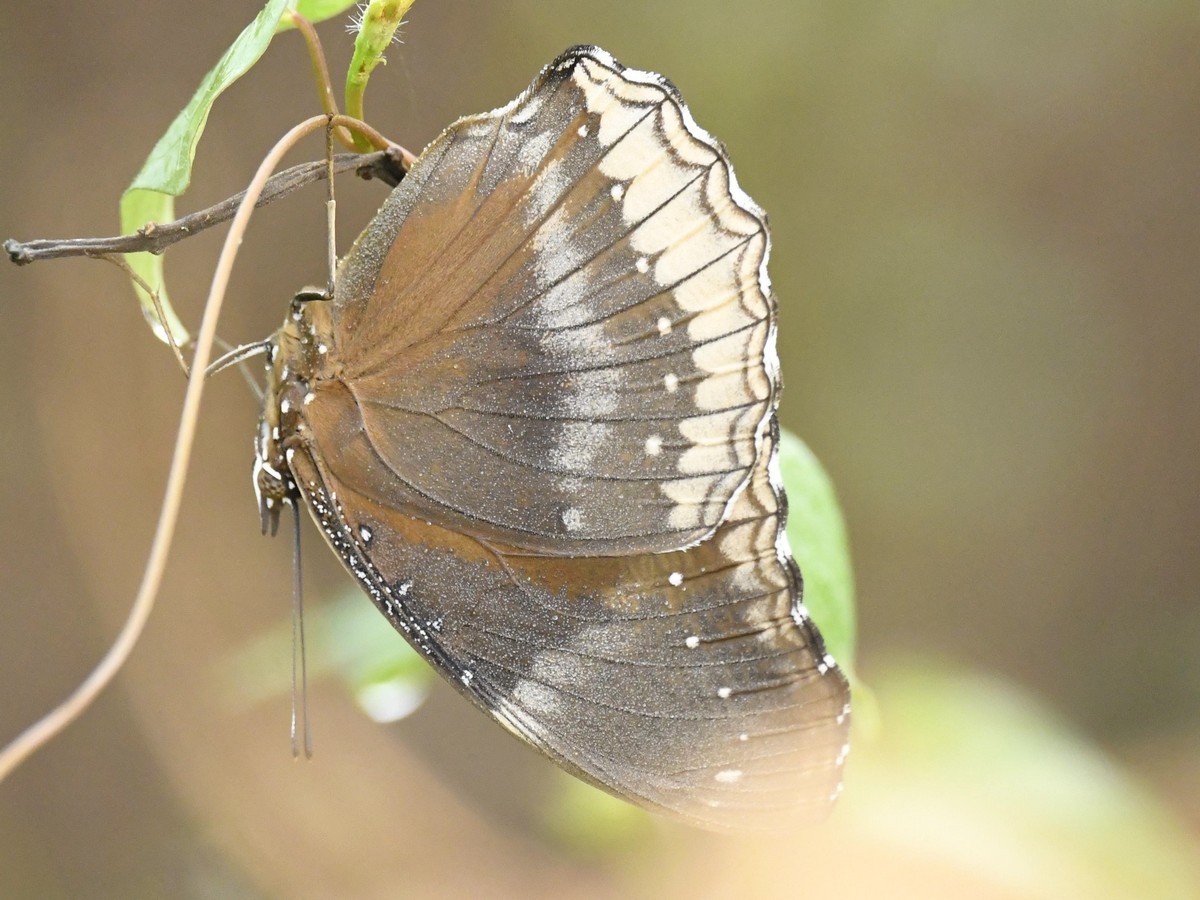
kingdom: Animalia
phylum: Arthropoda
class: Insecta
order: Lepidoptera
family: Nymphalidae
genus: Hypolimnas
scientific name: Hypolimnas bolina
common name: Great eggfly
